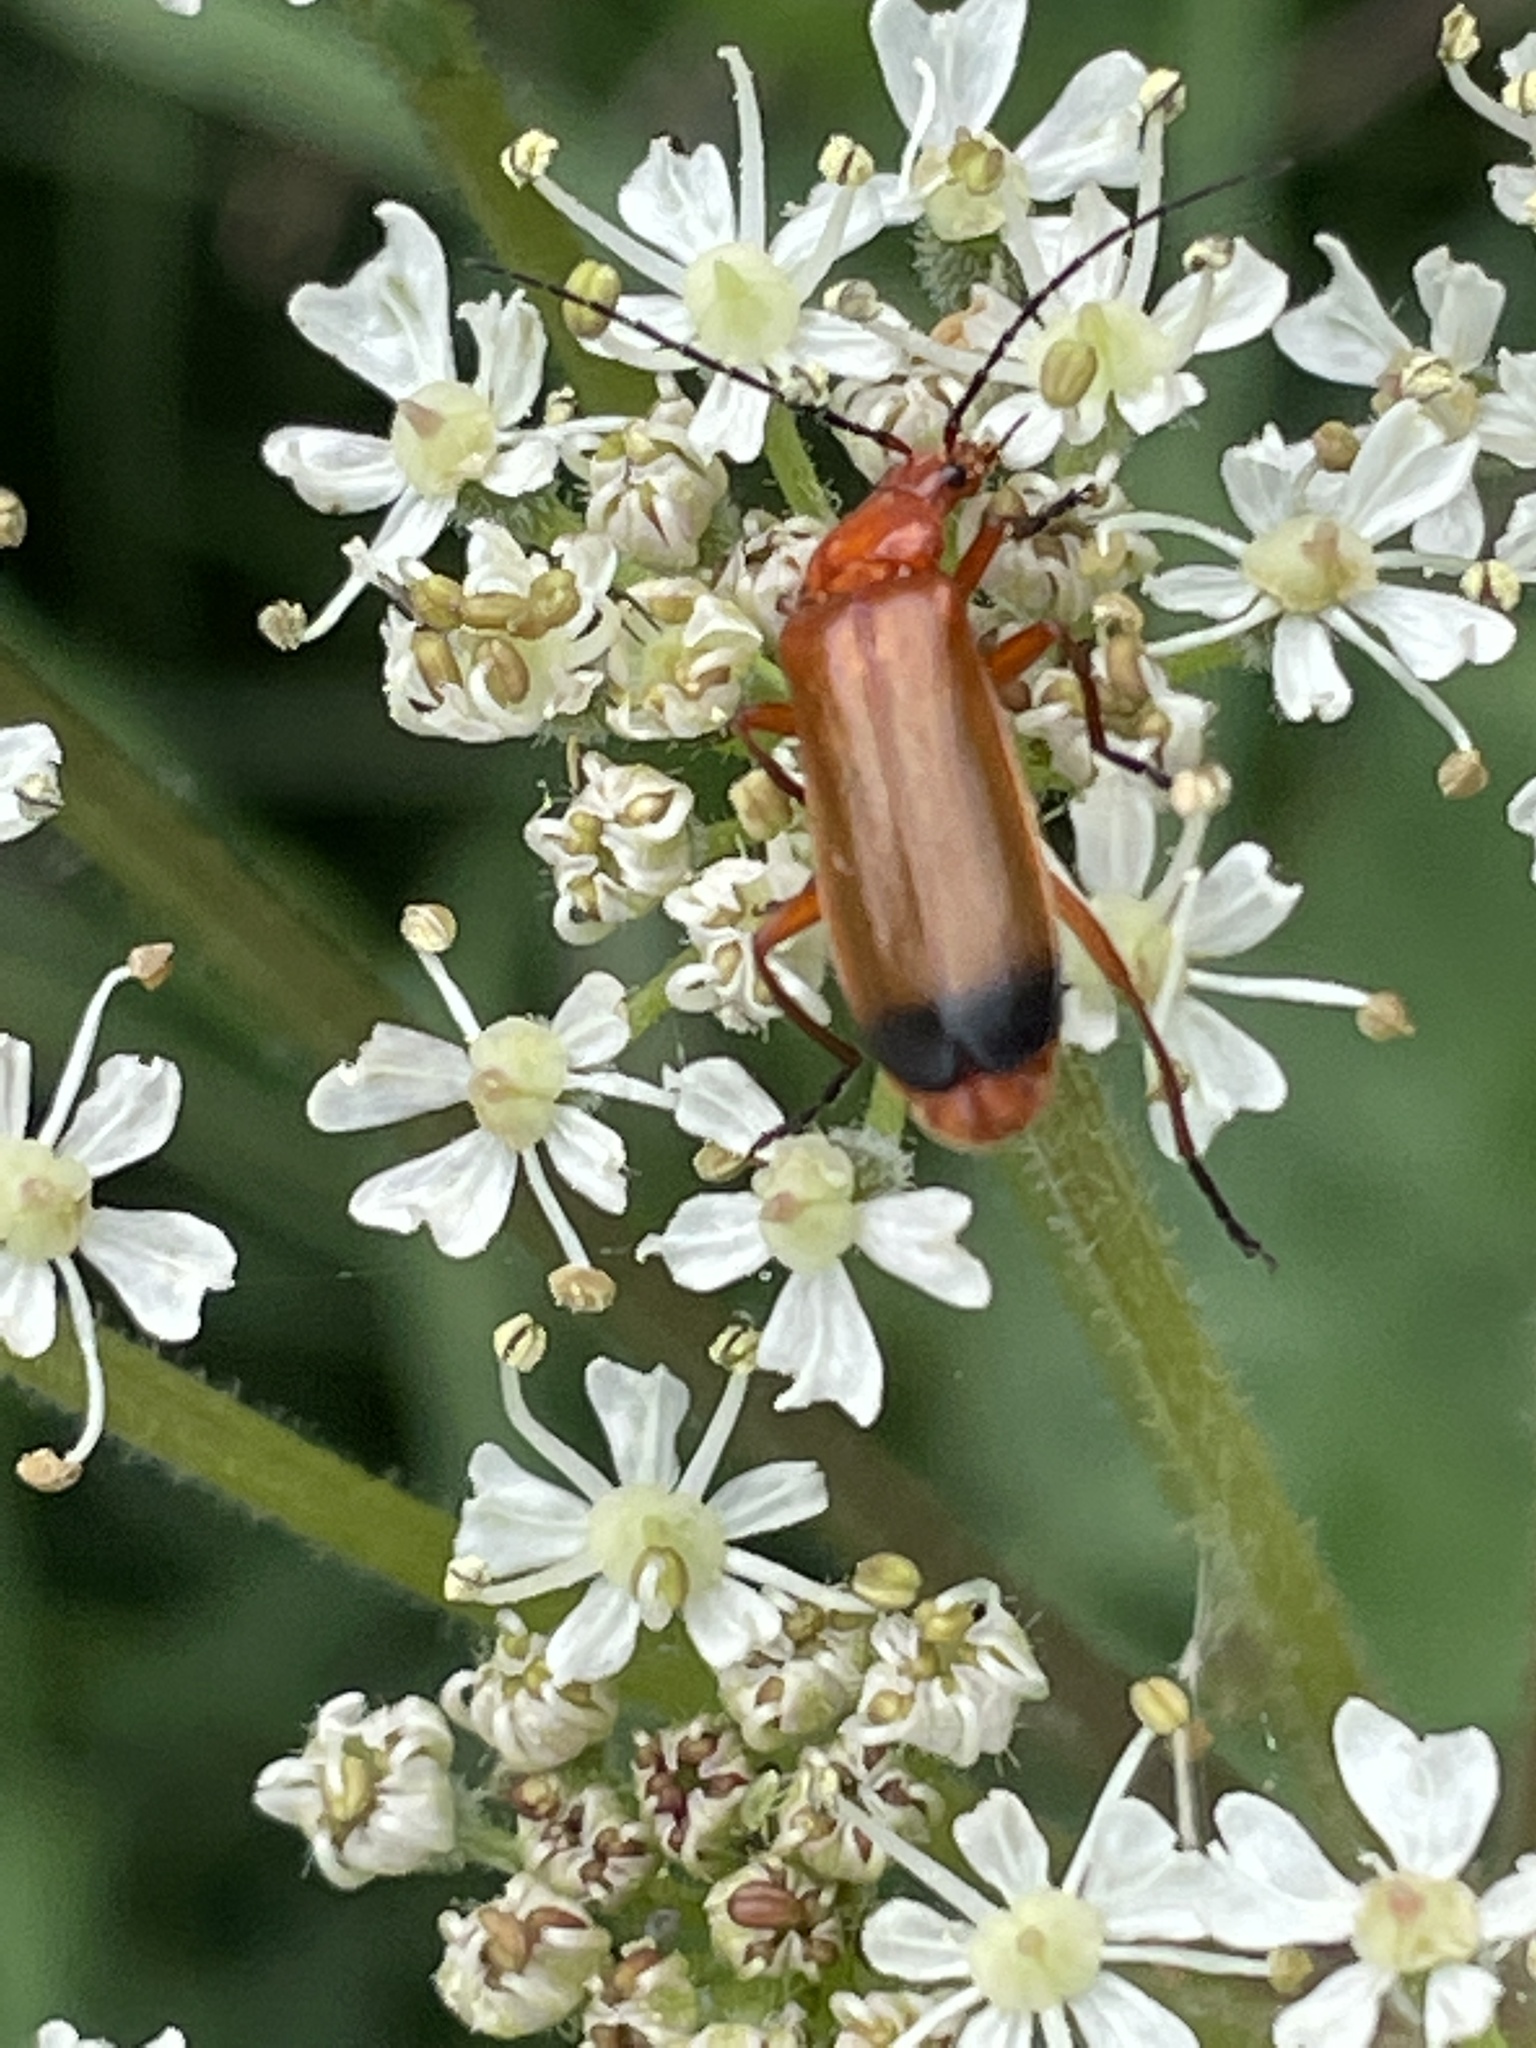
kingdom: Animalia
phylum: Arthropoda
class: Insecta
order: Coleoptera
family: Cantharidae
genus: Rhagonycha
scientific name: Rhagonycha fulva
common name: Common red soldier beetle
